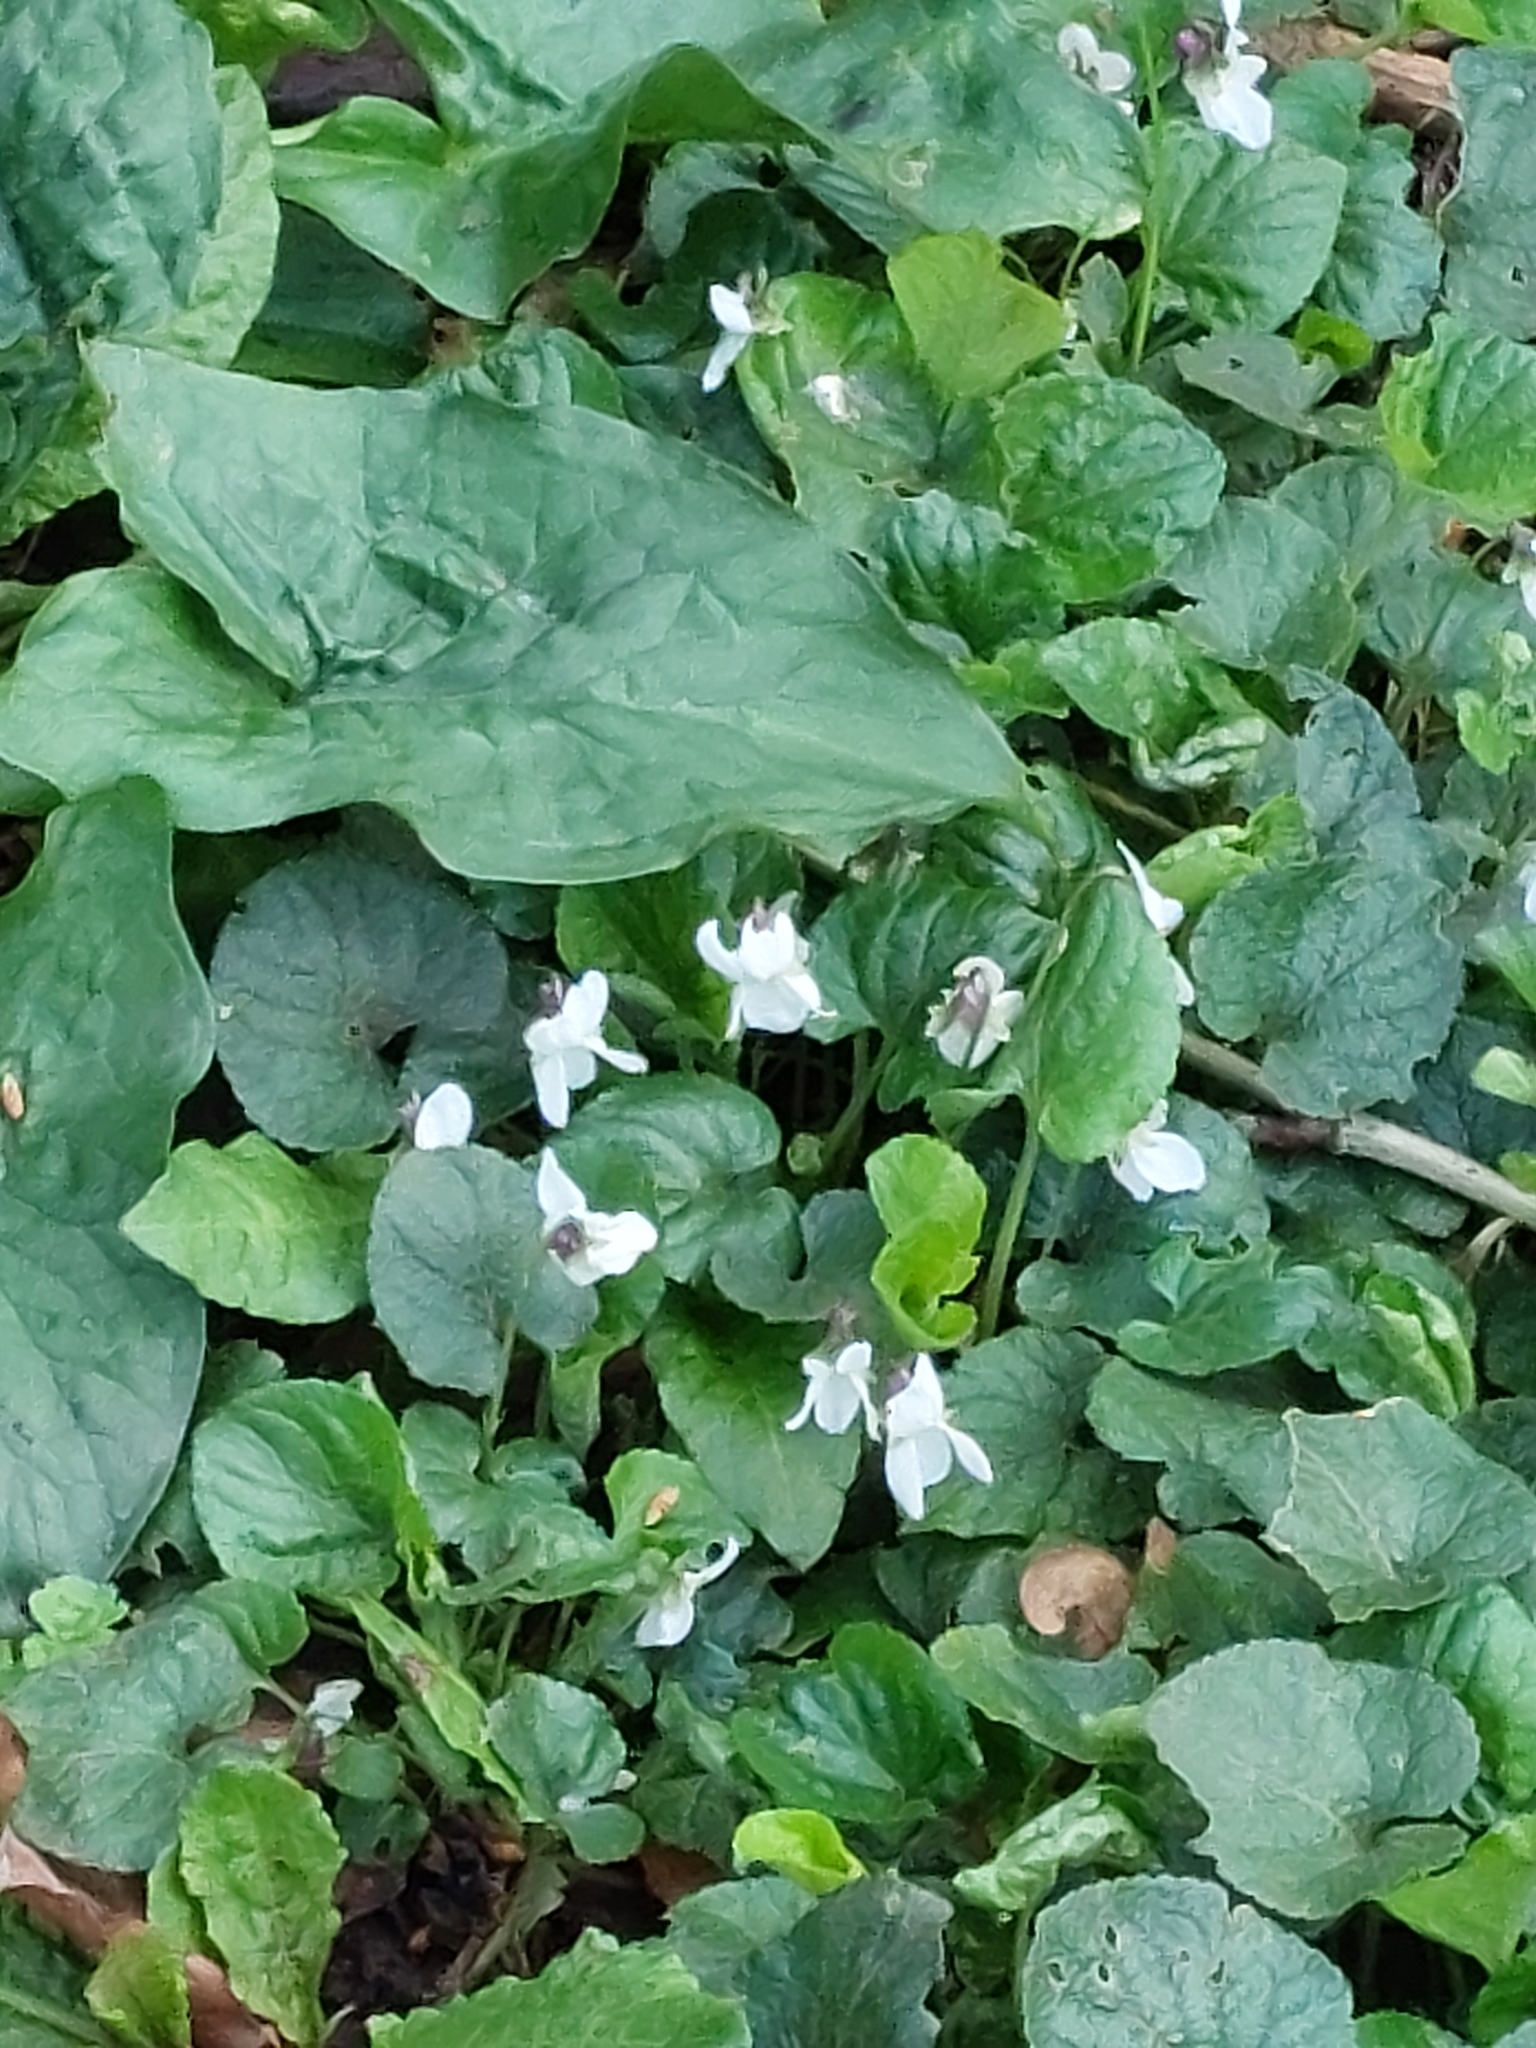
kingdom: Plantae
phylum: Tracheophyta
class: Magnoliopsida
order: Malpighiales
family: Violaceae
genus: Viola
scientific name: Viola odorata
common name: Sweet violet
